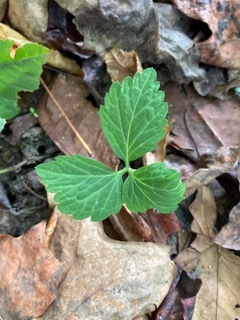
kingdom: Plantae
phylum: Tracheophyta
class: Magnoliopsida
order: Brassicales
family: Brassicaceae
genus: Cardamine
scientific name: Cardamine diphylla
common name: Broad-leaved toothwort
